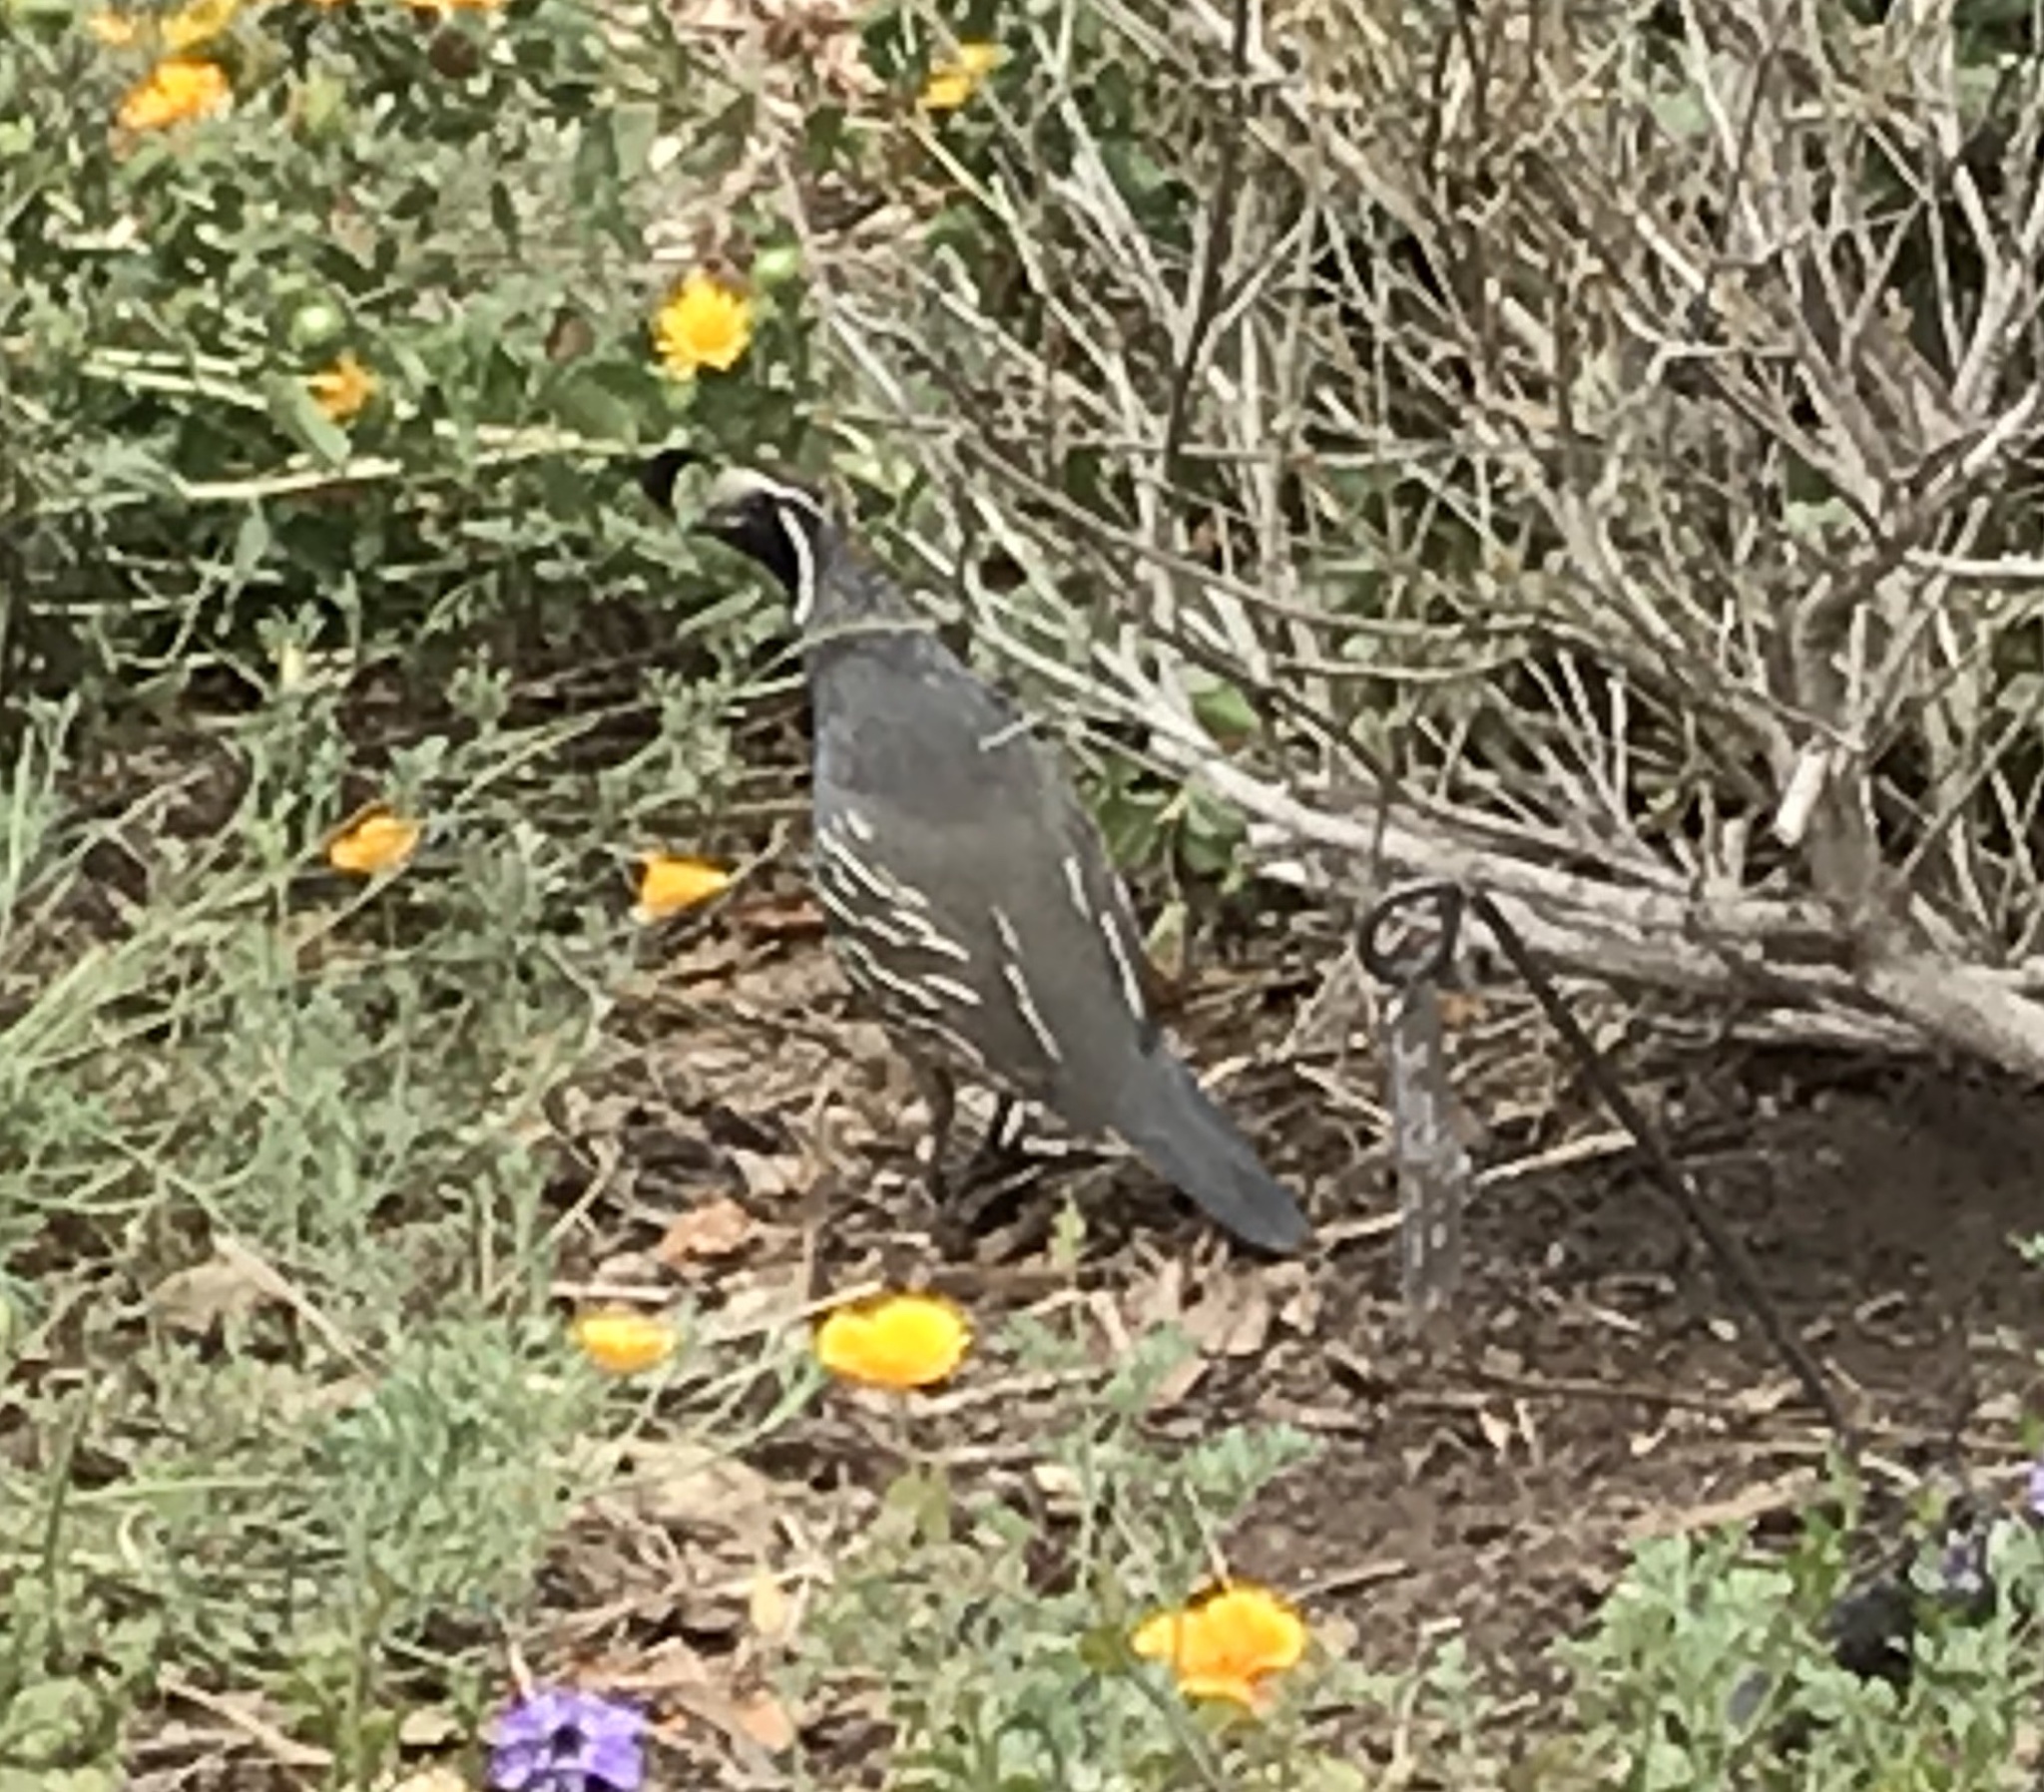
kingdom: Animalia
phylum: Chordata
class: Aves
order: Galliformes
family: Odontophoridae
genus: Callipepla
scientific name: Callipepla californica
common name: California quail
